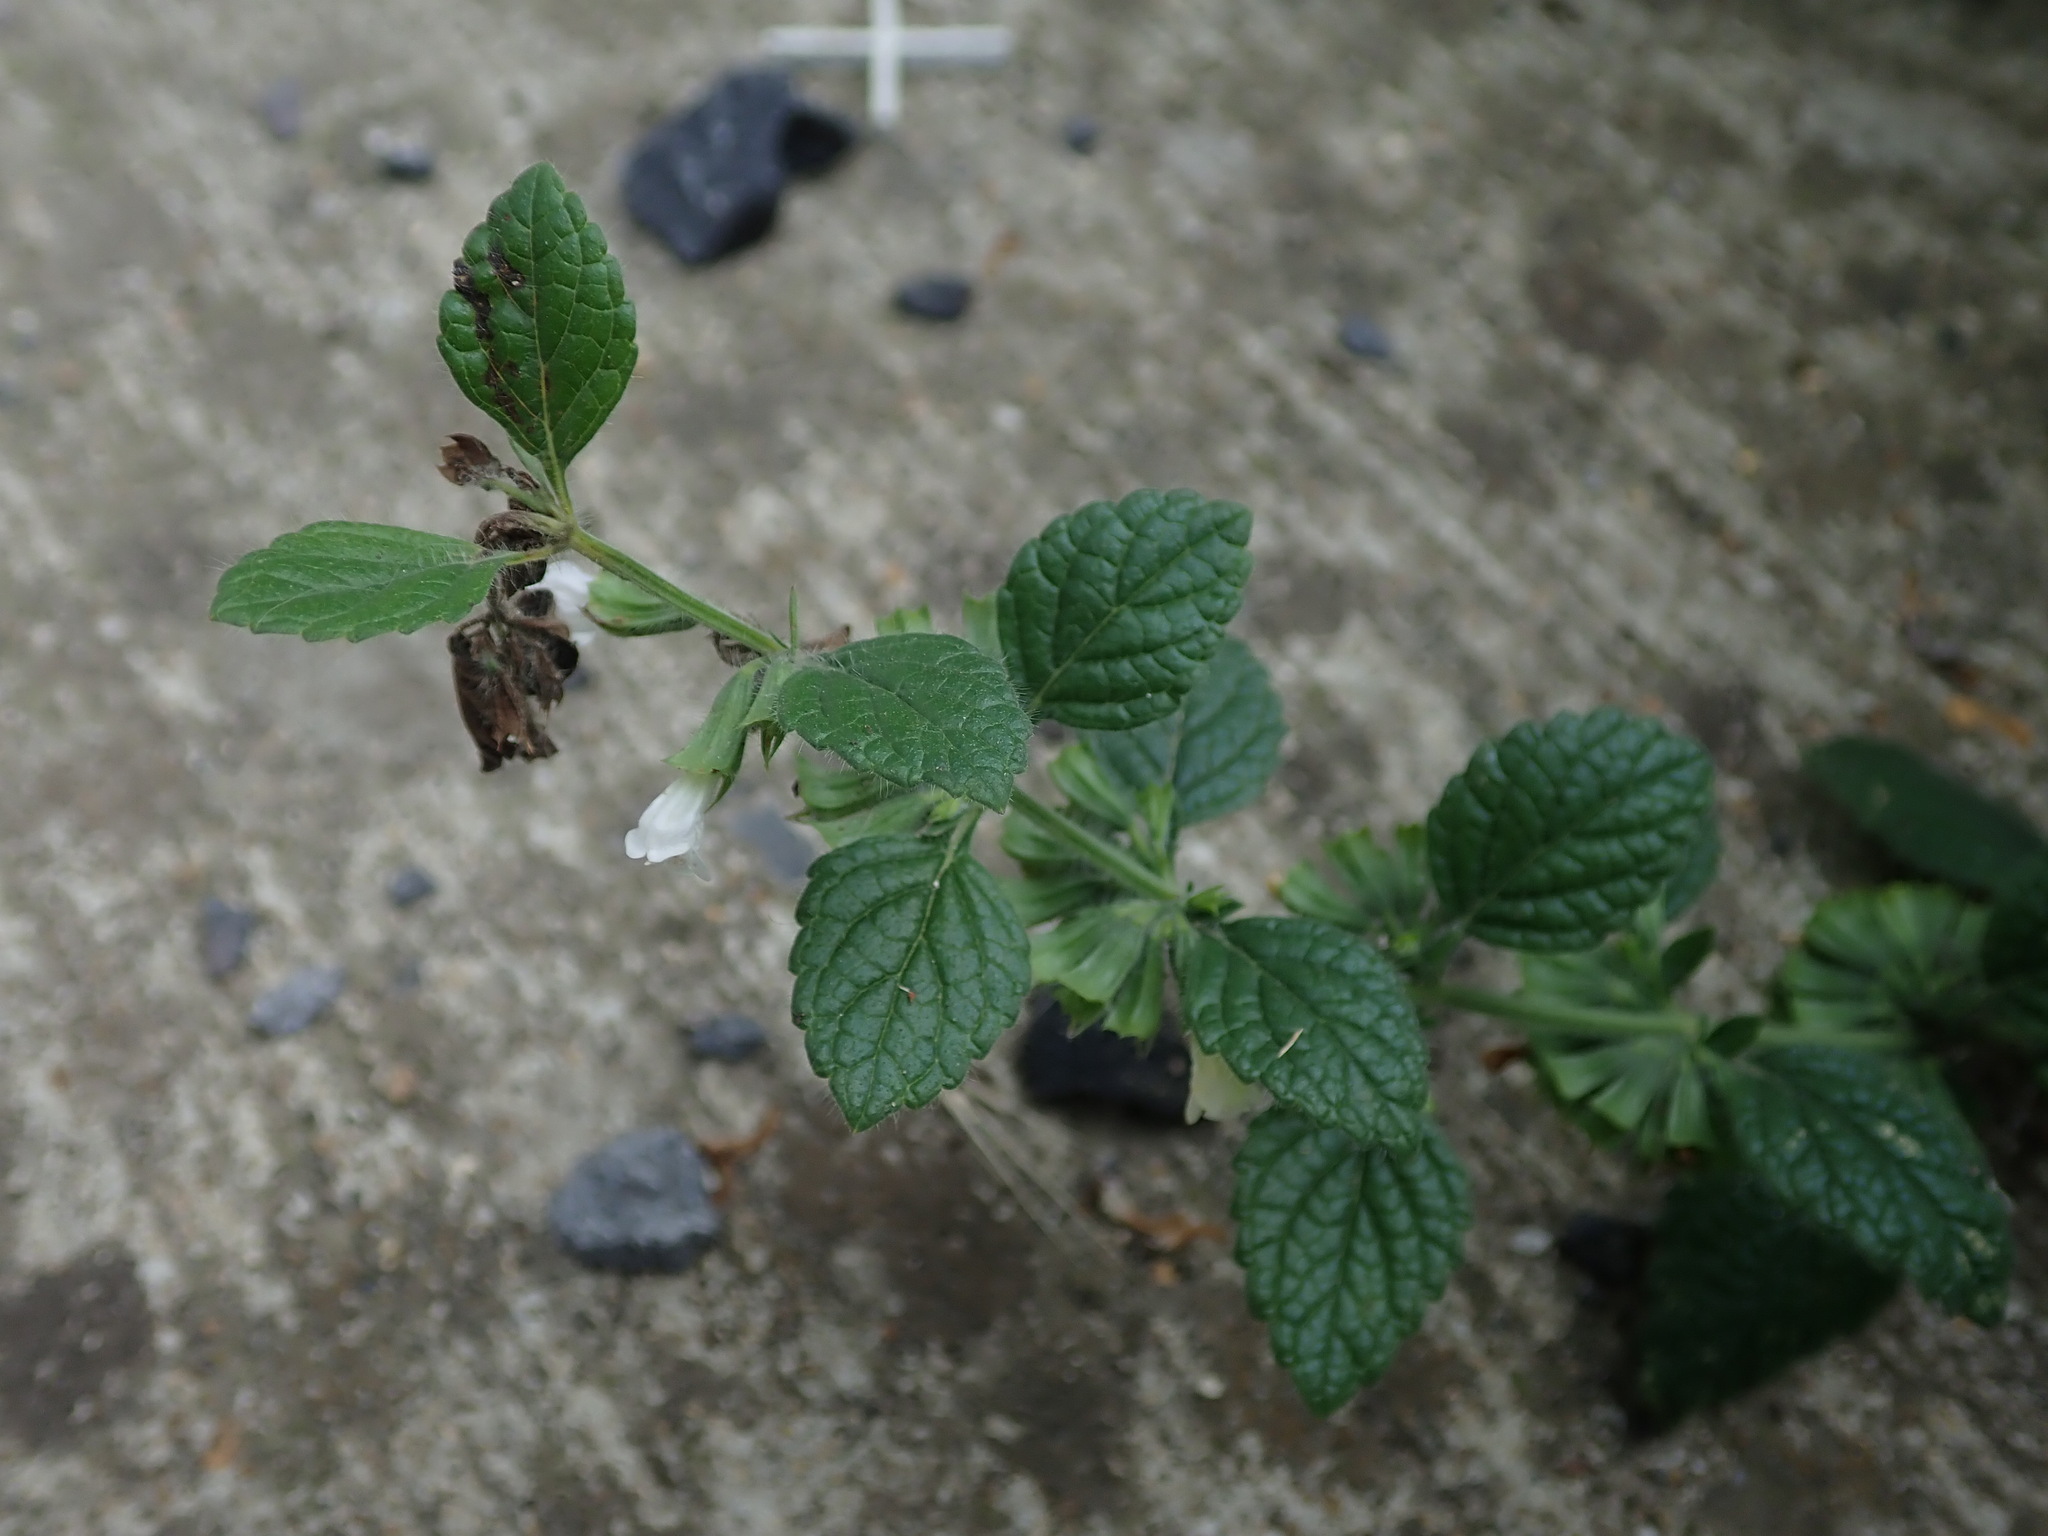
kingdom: Plantae
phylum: Tracheophyta
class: Magnoliopsida
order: Lamiales
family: Lamiaceae
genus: Melissa
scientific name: Melissa officinalis
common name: Balm
